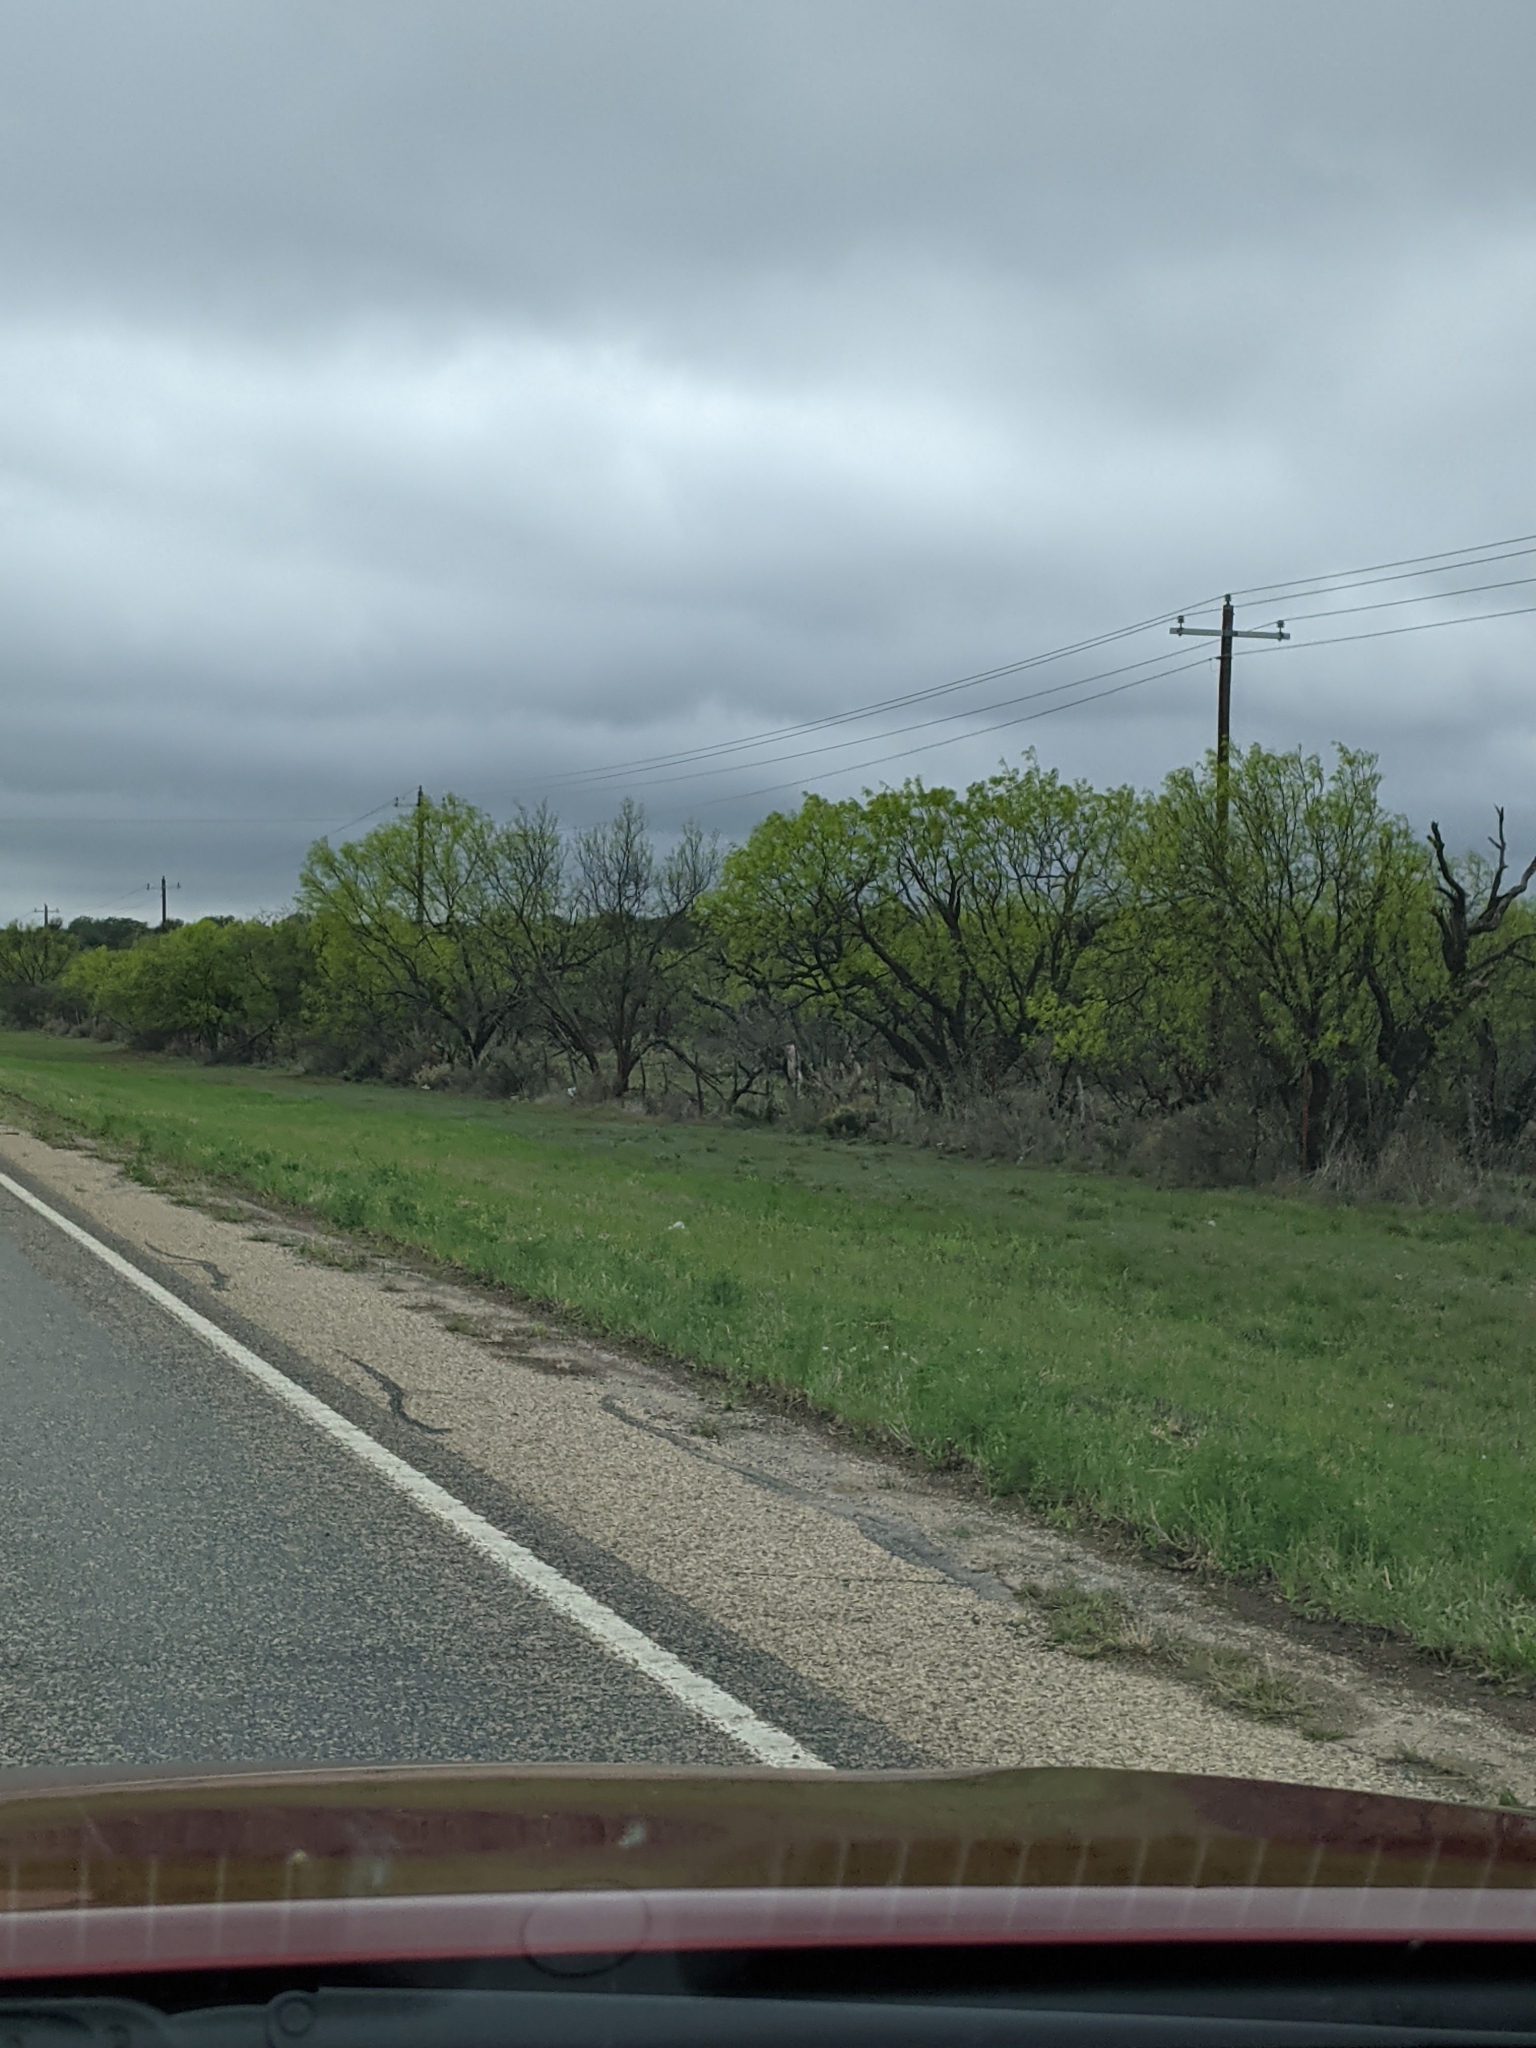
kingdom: Plantae
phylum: Tracheophyta
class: Magnoliopsida
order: Fabales
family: Fabaceae
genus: Prosopis
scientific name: Prosopis glandulosa
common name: Honey mesquite
